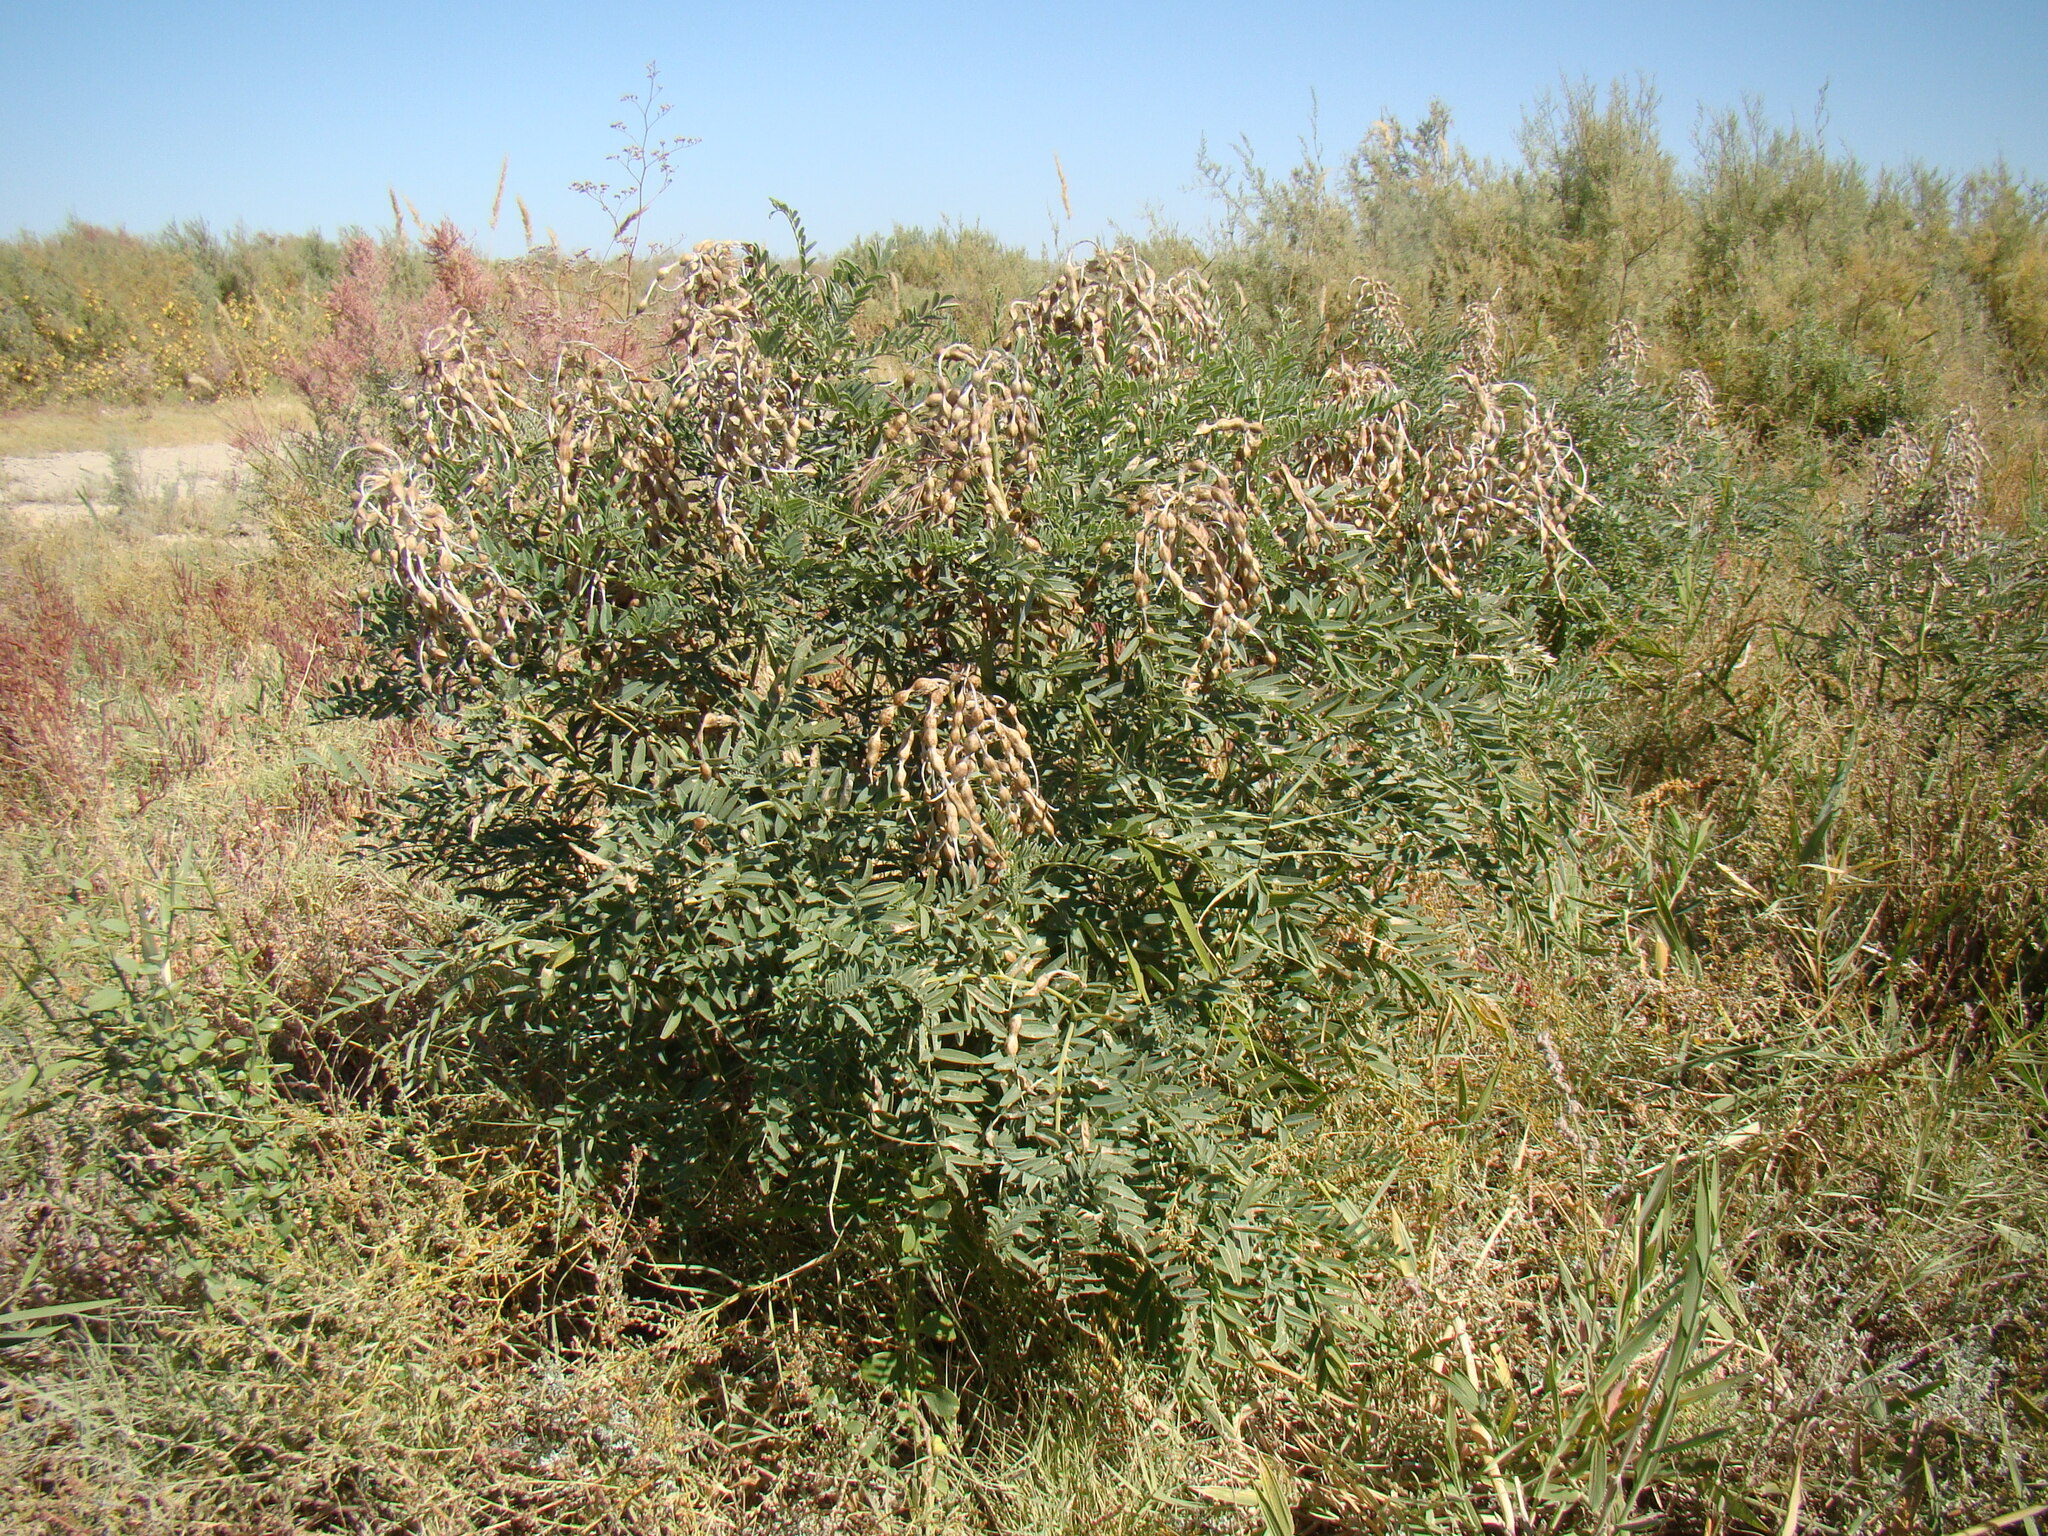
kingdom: Plantae
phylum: Tracheophyta
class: Magnoliopsida
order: Fabales
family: Fabaceae
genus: Sophora
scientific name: Sophora alopecuroides
